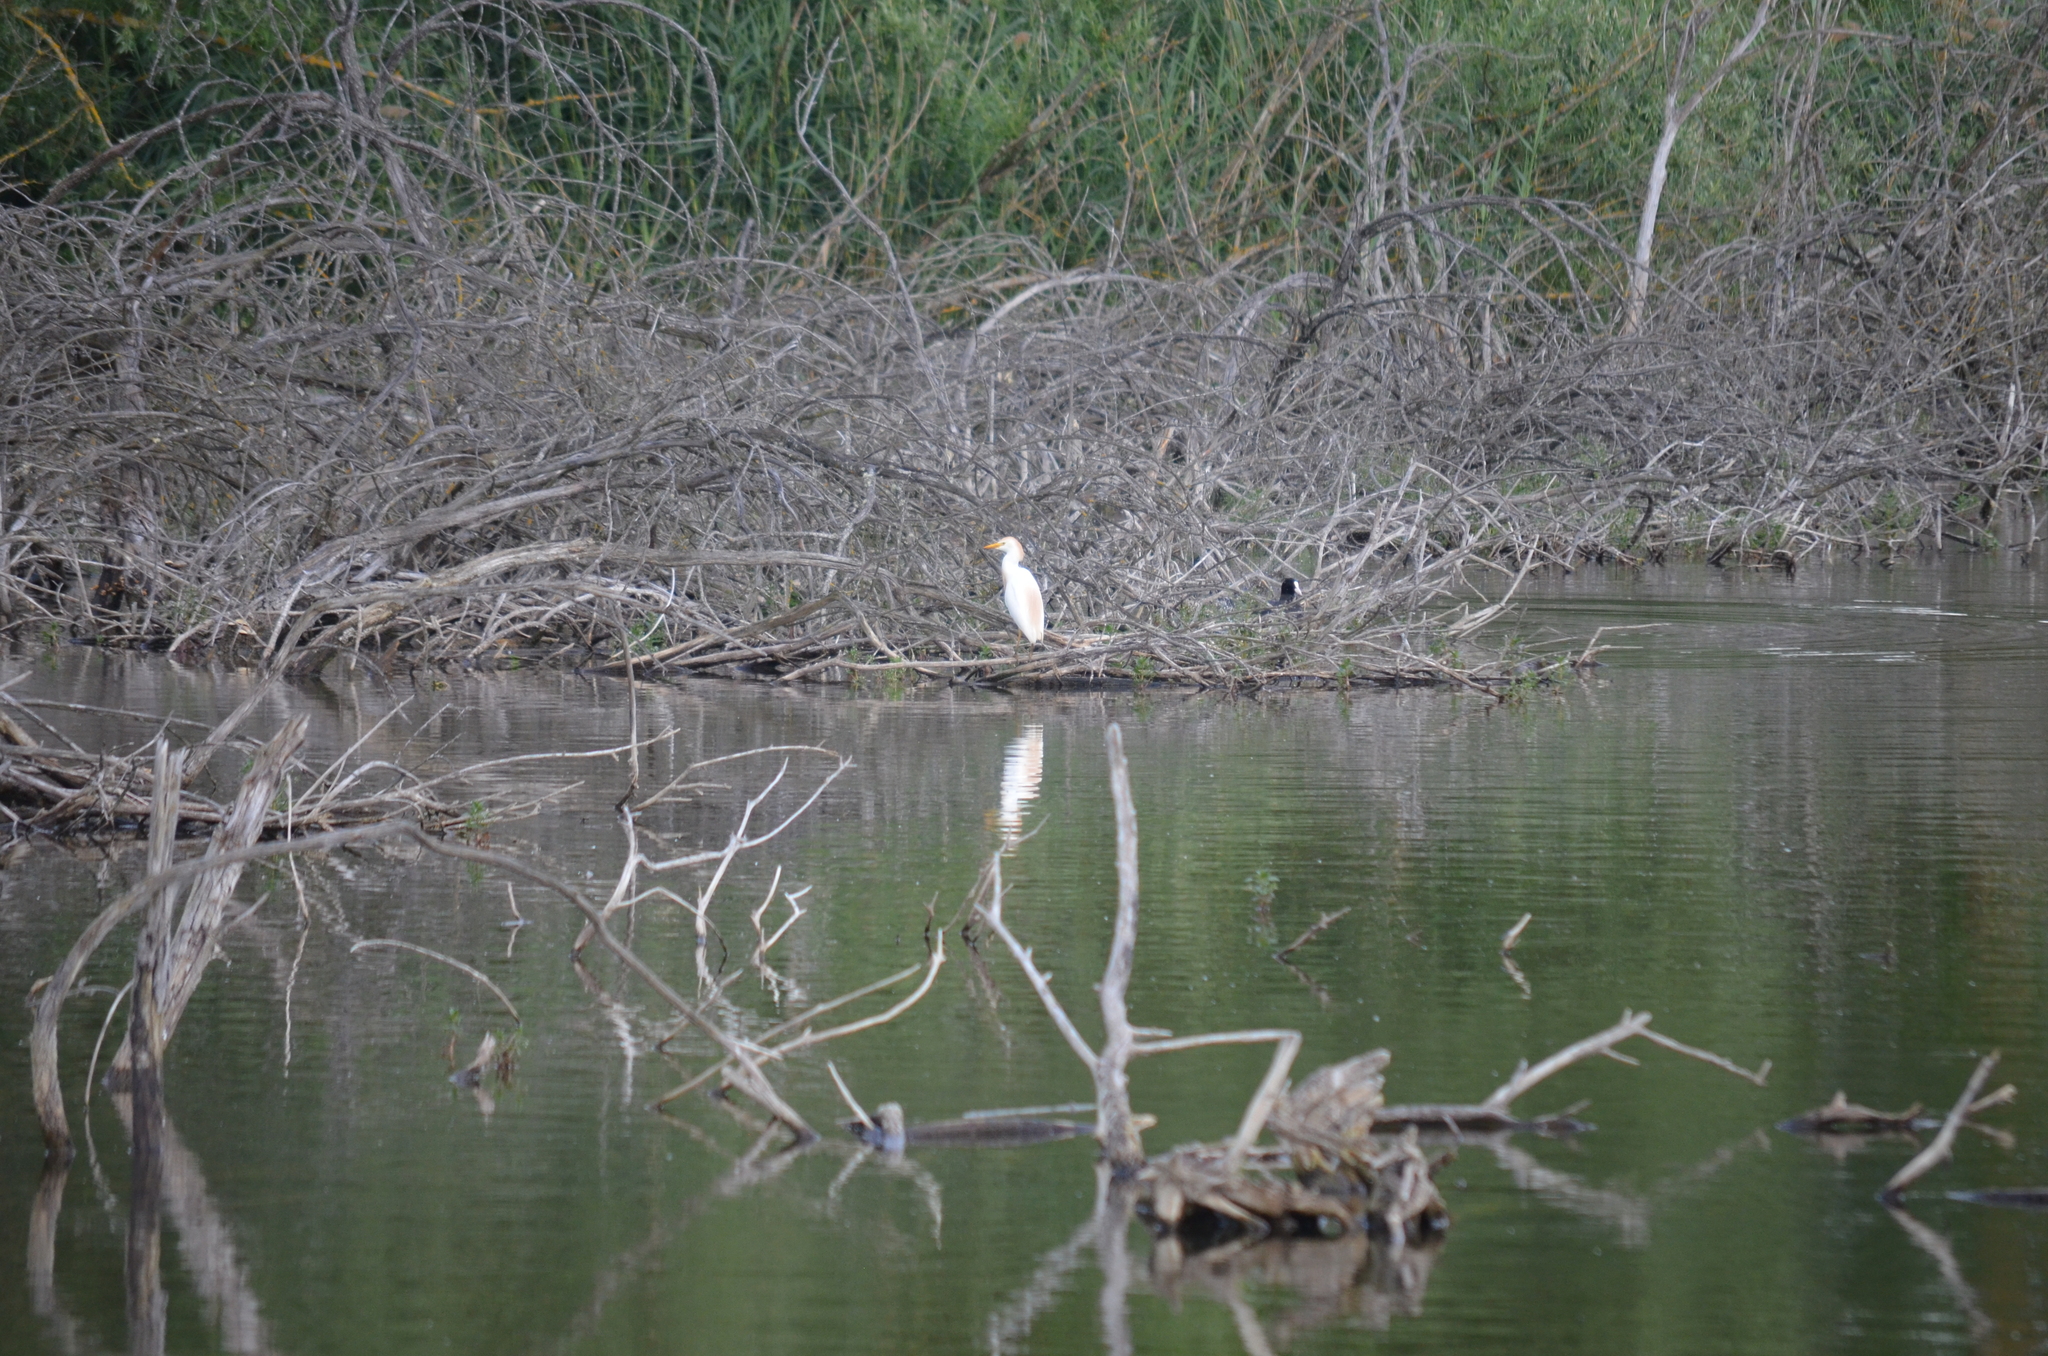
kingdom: Animalia
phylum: Chordata
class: Aves
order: Pelecaniformes
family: Ardeidae
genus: Bubulcus
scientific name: Bubulcus ibis
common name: Cattle egret
